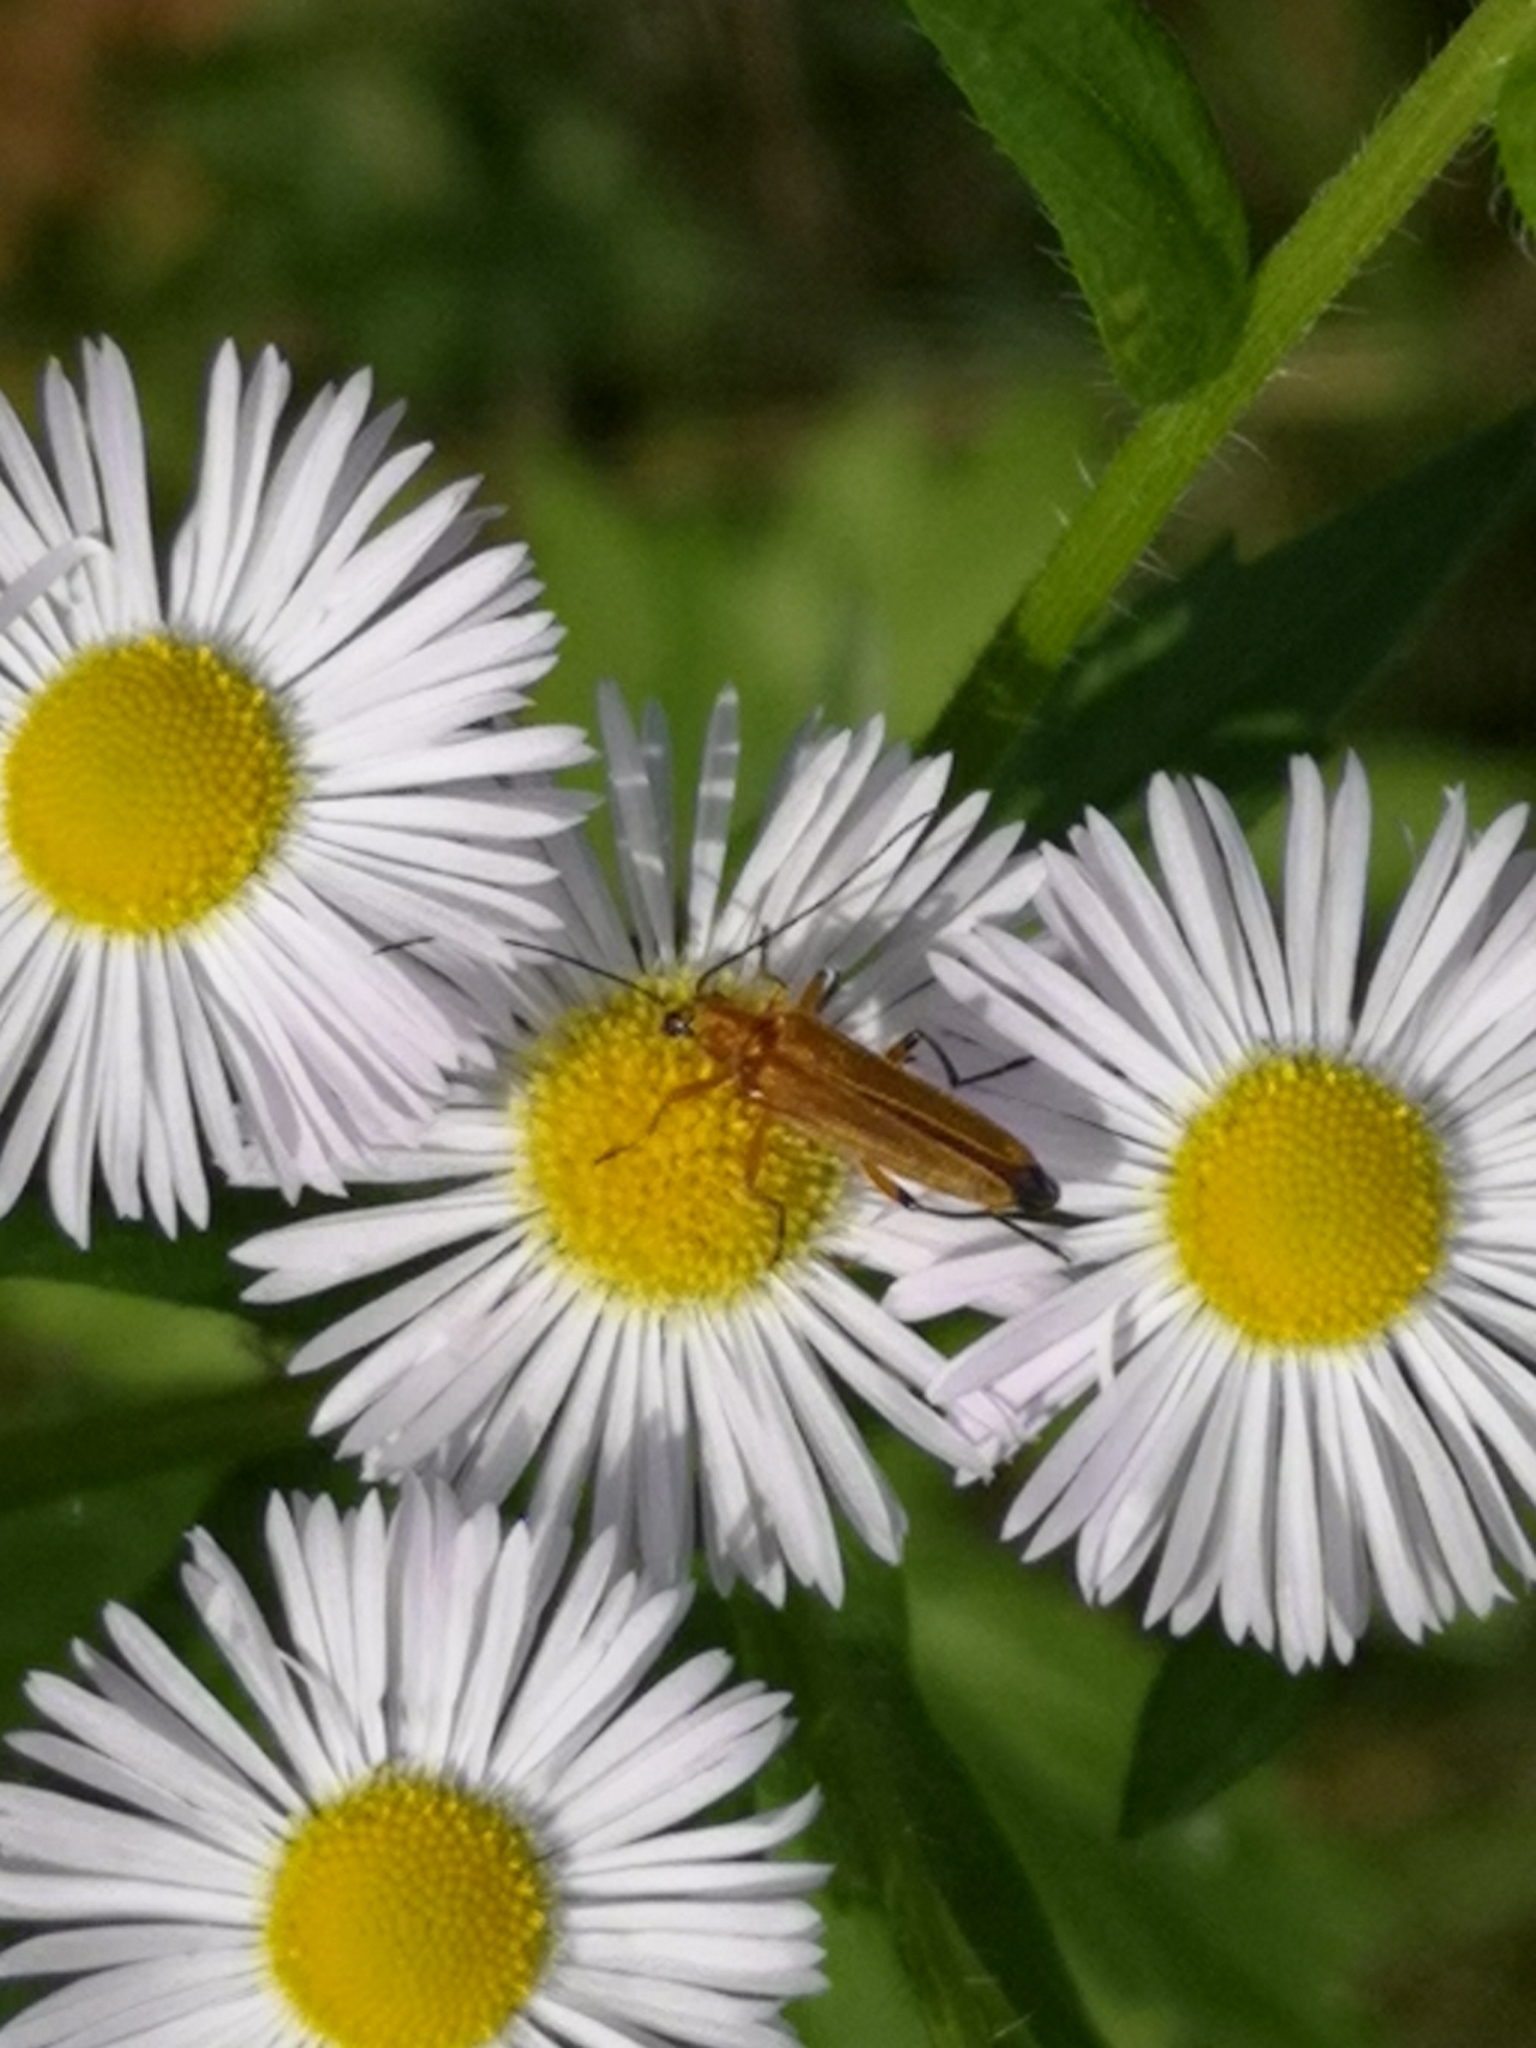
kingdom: Animalia
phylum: Arthropoda
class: Insecta
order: Coleoptera
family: Oedemeridae
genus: Oedemera
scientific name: Oedemera podagrariae
